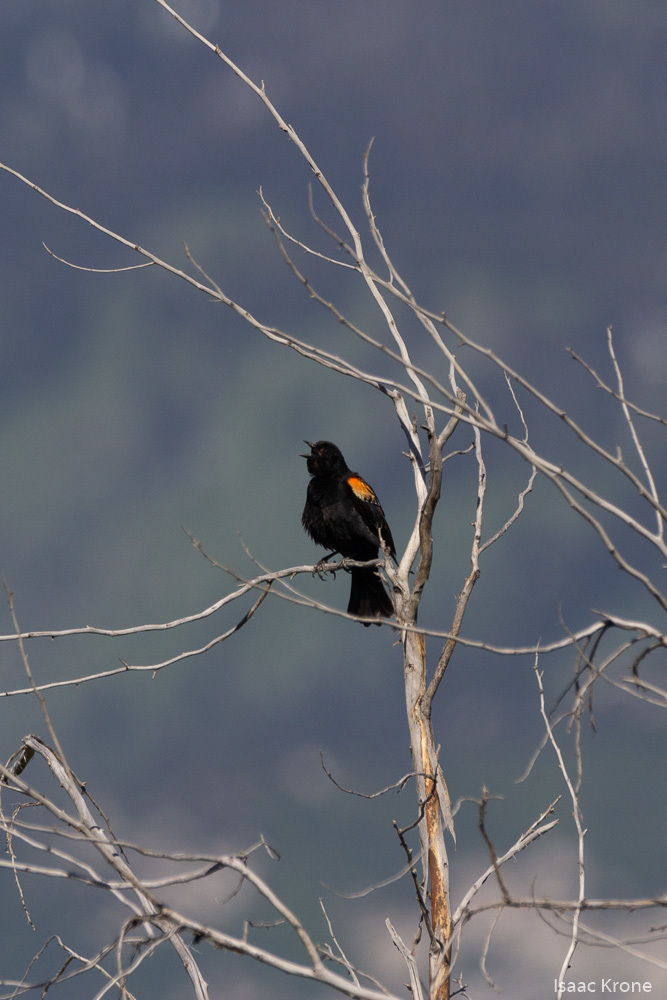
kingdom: Animalia
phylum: Chordata
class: Aves
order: Passeriformes
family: Icteridae
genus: Agelaius
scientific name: Agelaius phoeniceus
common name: Red-winged blackbird
